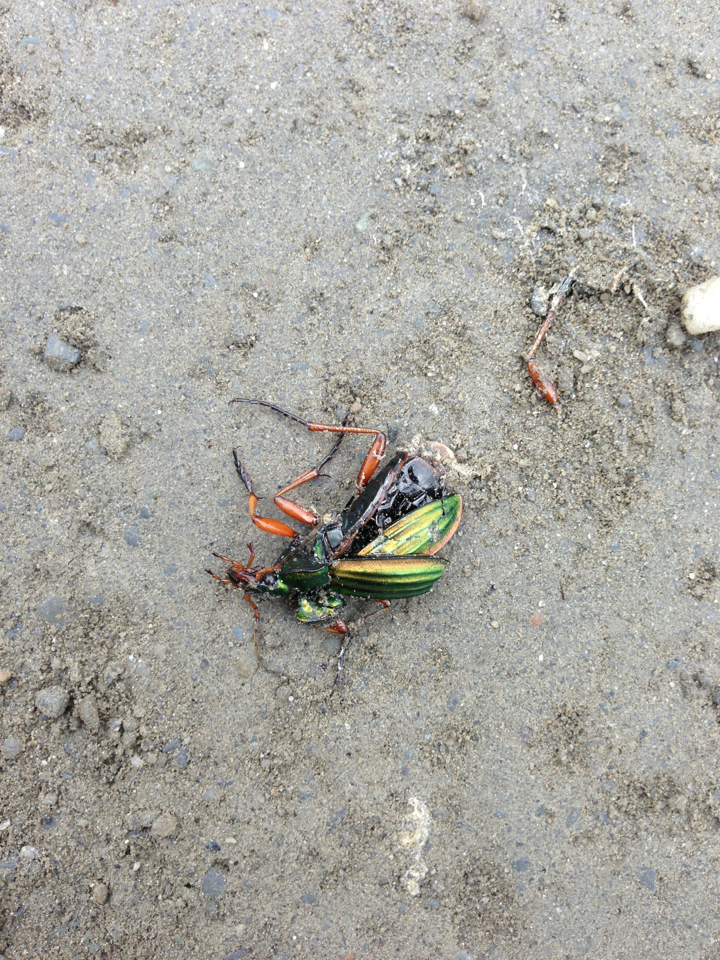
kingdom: Animalia
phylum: Arthropoda
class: Insecta
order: Coleoptera
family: Carabidae
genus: Carabus
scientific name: Carabus auratus
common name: Golden ground beetle
